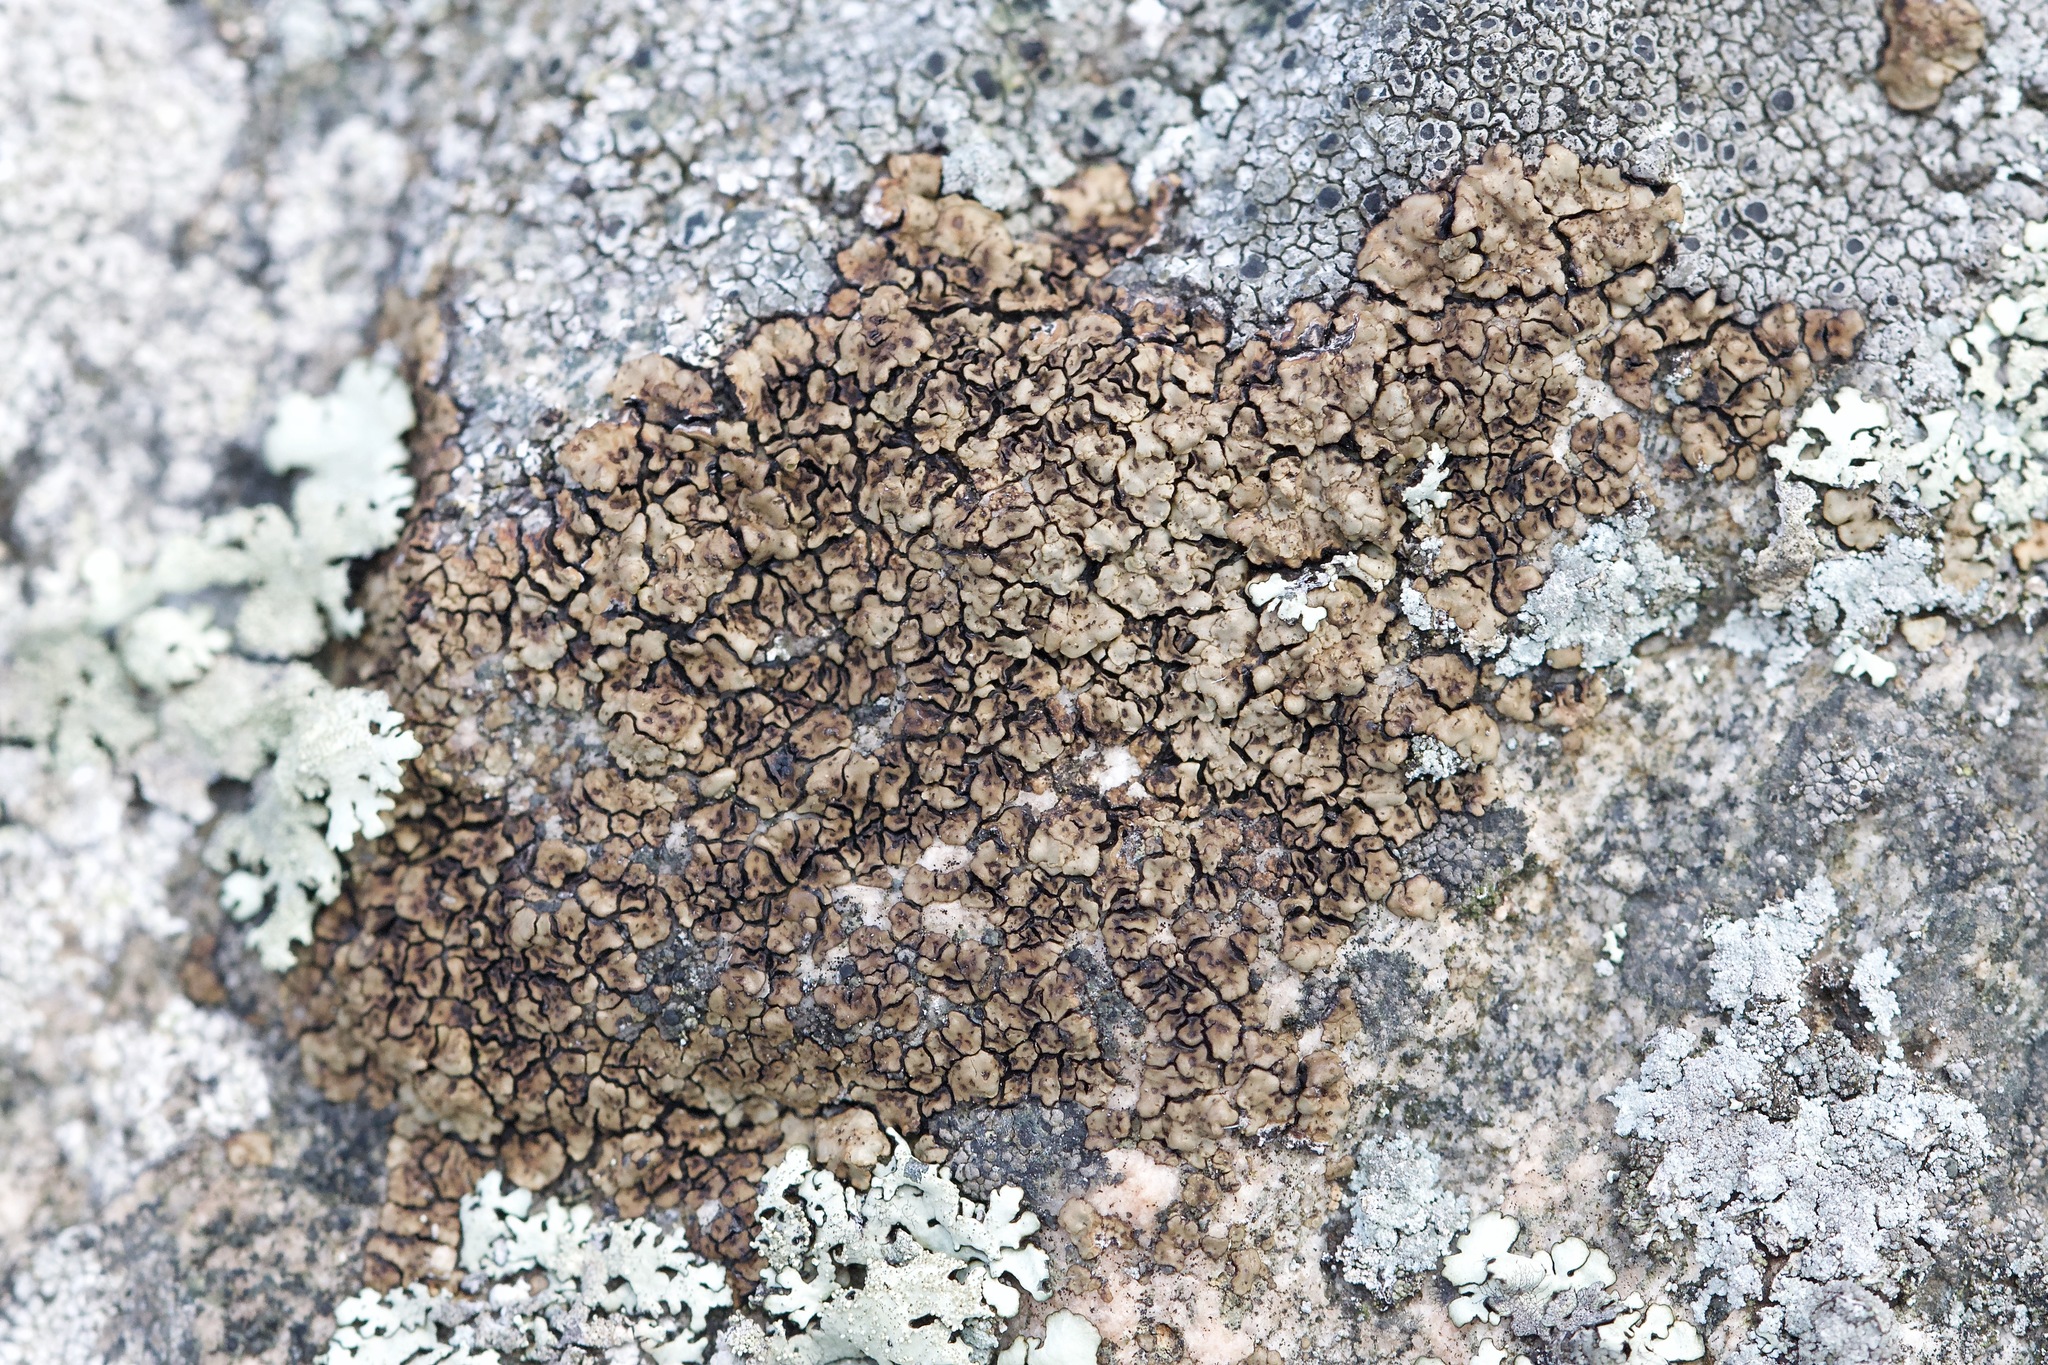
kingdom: Fungi
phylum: Ascomycota
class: Lecanoromycetes
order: Acarosporales
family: Acarosporaceae
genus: Acarospora
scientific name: Acarospora fuscata
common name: Brown cobblestone lichen
